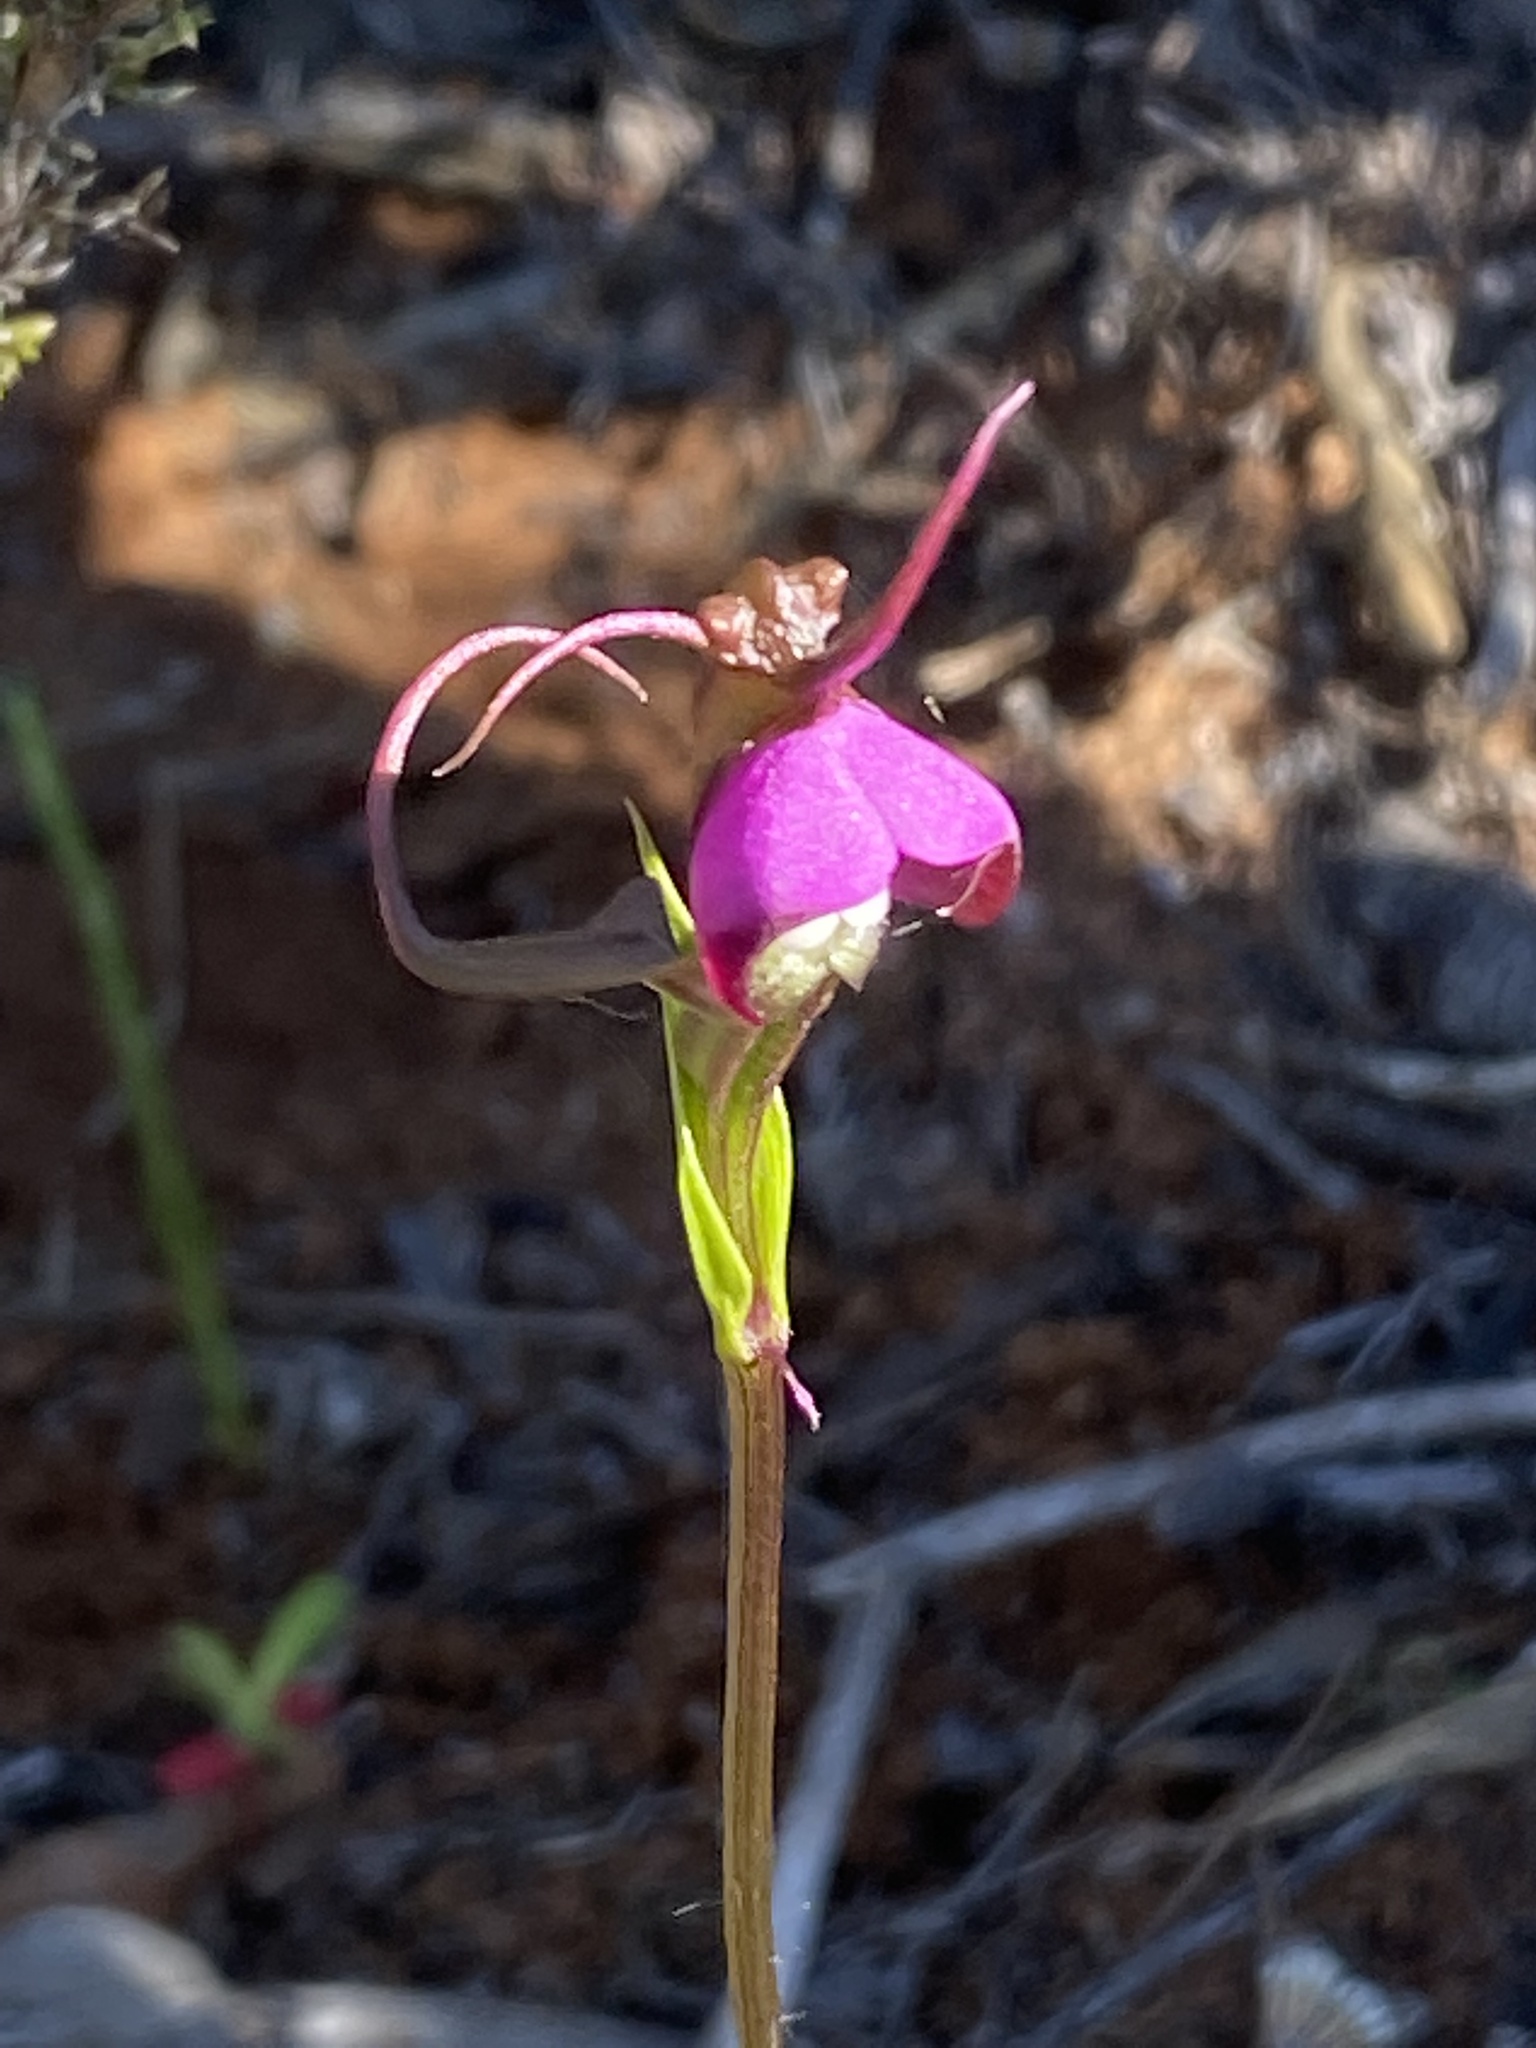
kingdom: Plantae
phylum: Tracheophyta
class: Liliopsida
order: Asparagales
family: Orchidaceae
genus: Disperis
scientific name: Disperis capensis
